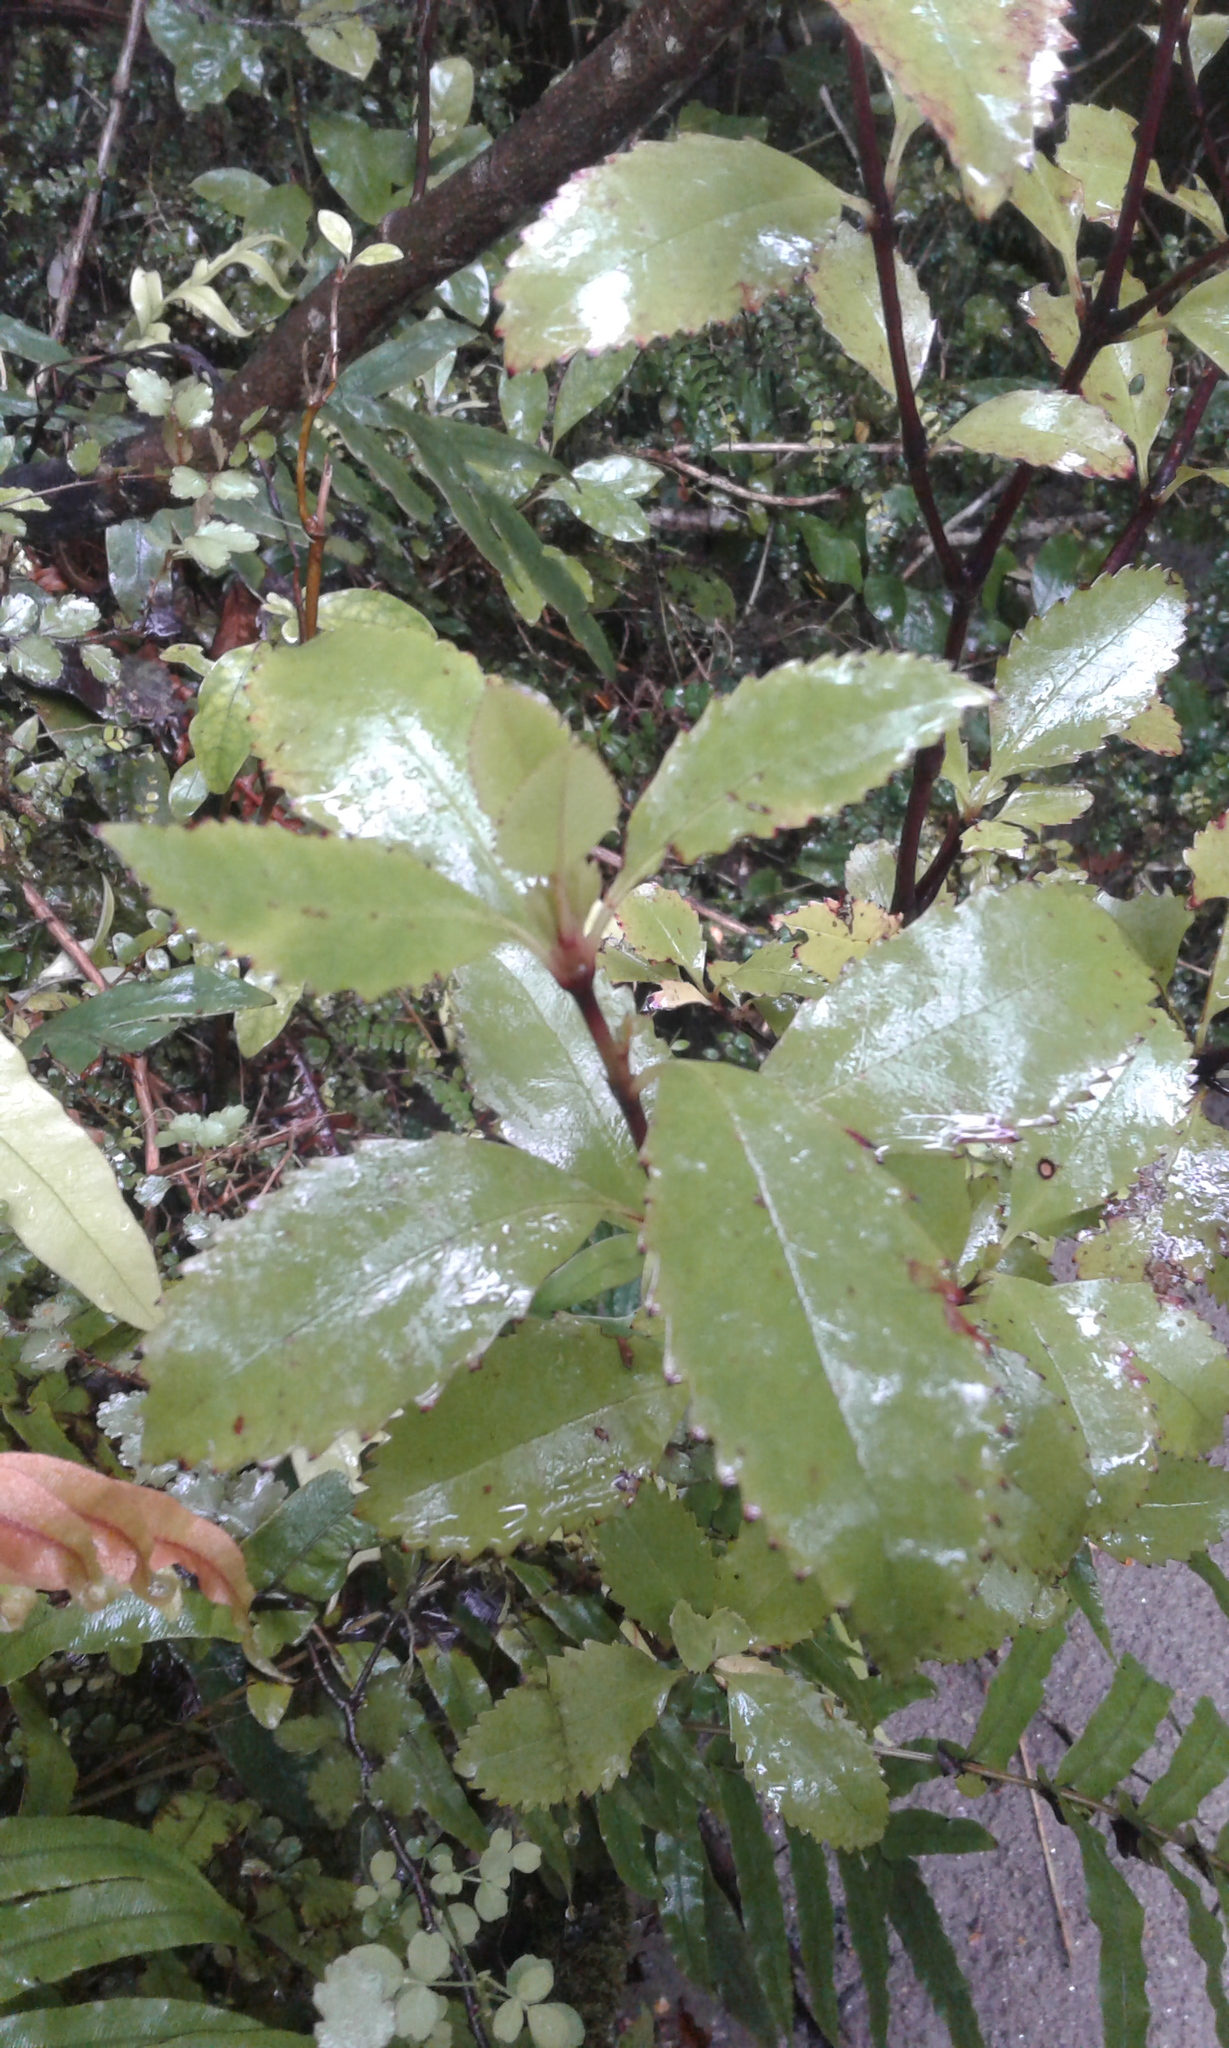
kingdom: Plantae
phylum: Tracheophyta
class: Magnoliopsida
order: Chloranthales
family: Chloranthaceae
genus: Ascarina
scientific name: Ascarina lucida
